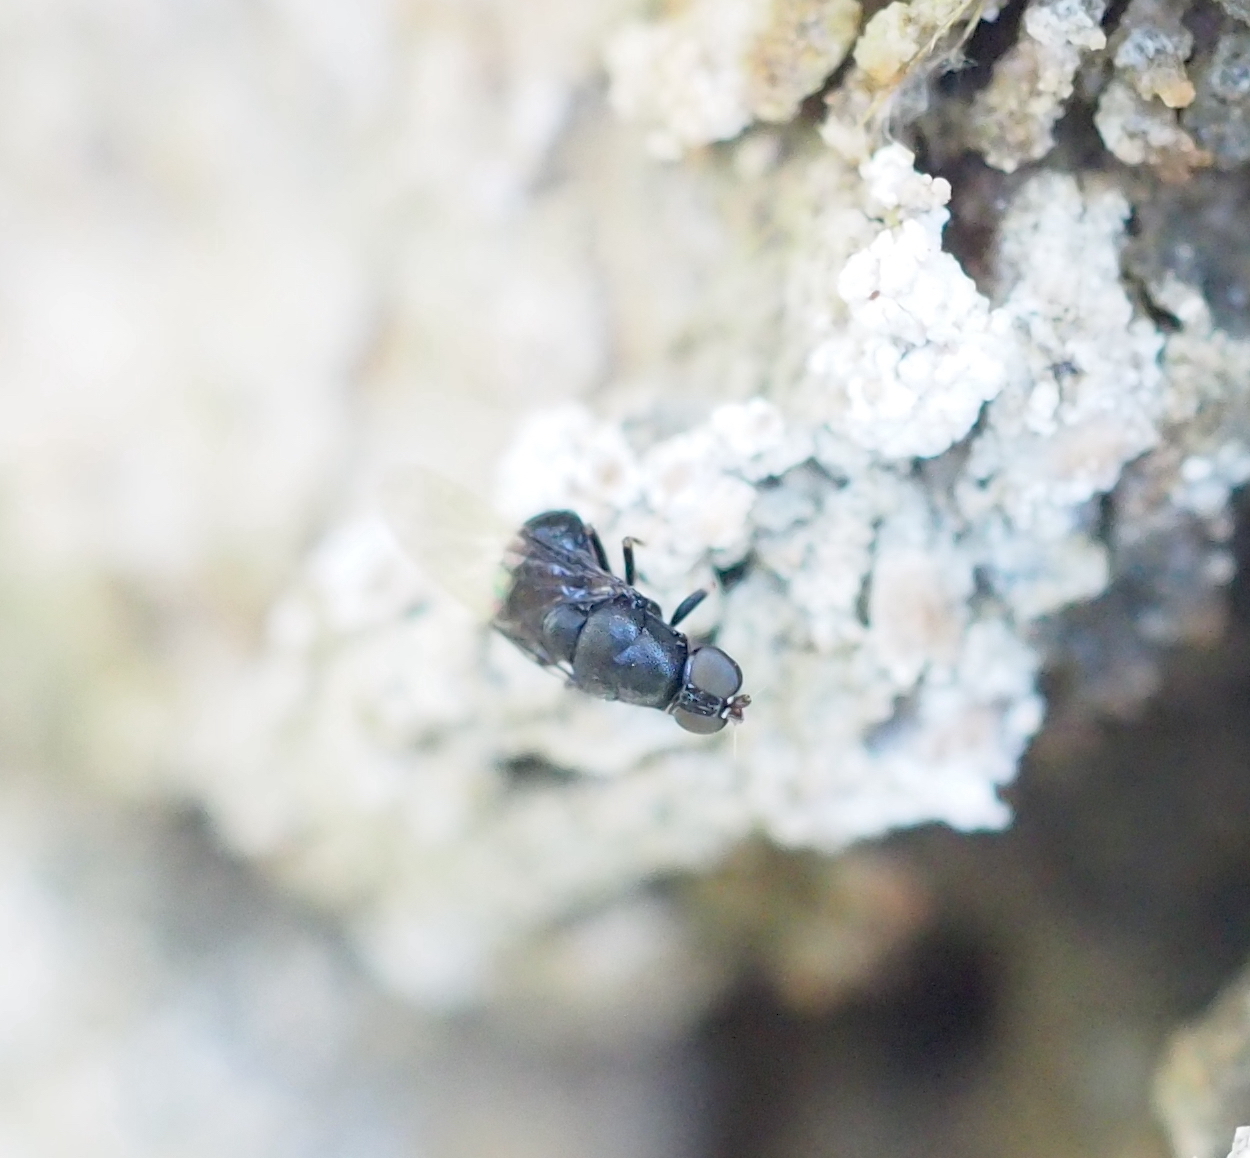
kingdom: Animalia
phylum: Arthropoda
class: Insecta
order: Diptera
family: Stratiomyidae
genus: Eupachygaster
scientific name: Eupachygaster tarsalis
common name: Scarce black
